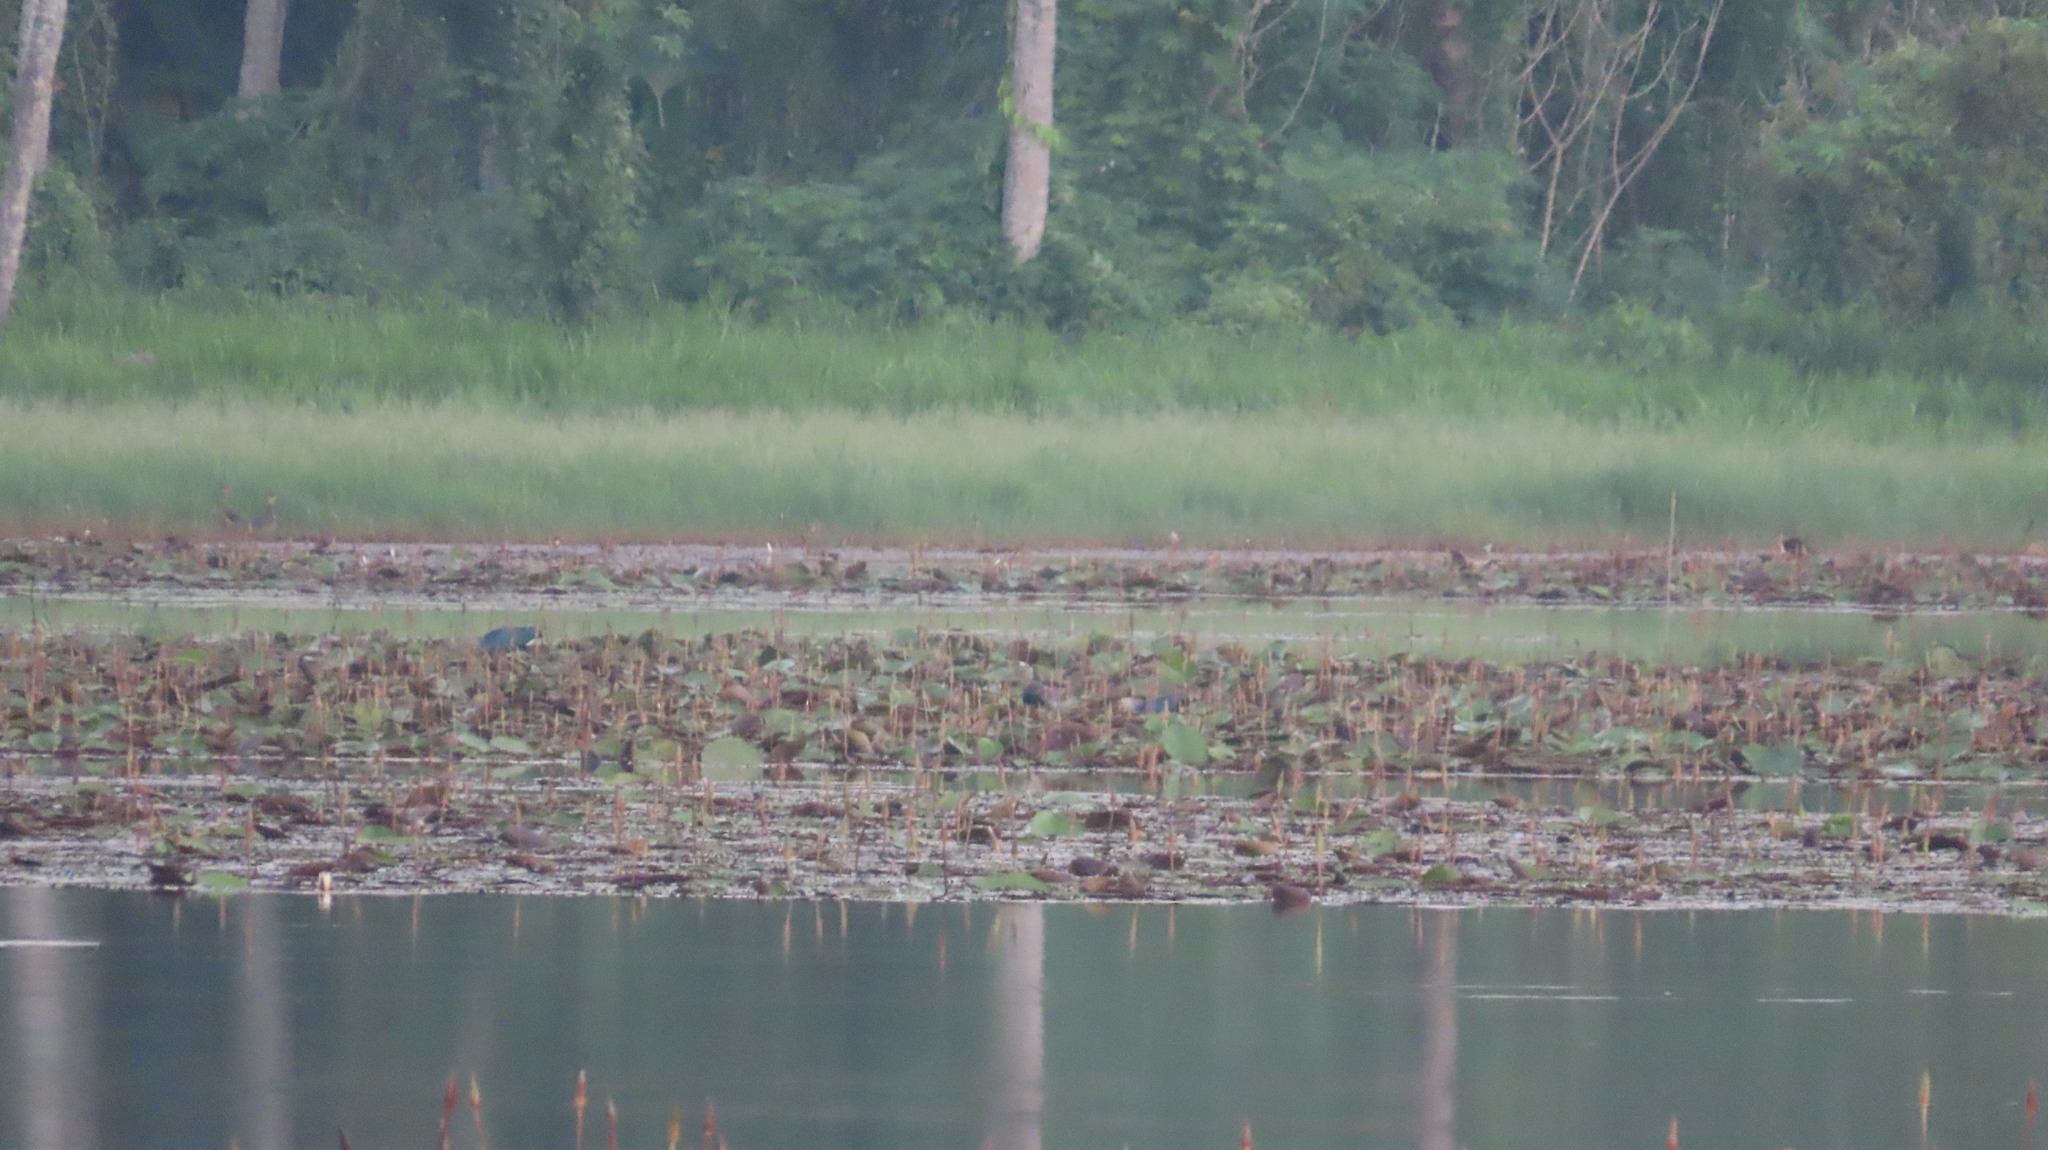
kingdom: Animalia
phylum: Chordata
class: Aves
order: Gruiformes
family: Rallidae
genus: Porphyrio
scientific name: Porphyrio porphyrio
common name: Purple swamphen
